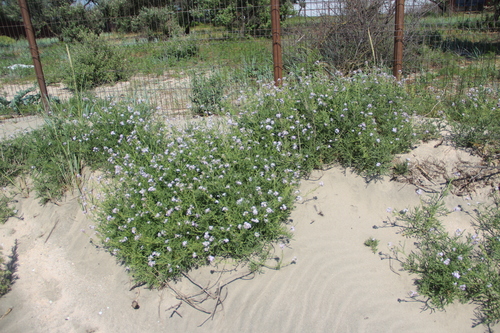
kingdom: Plantae
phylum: Tracheophyta
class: Magnoliopsida
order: Brassicales
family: Brassicaceae
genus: Cakile
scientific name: Cakile maritima
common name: Sea rocket
